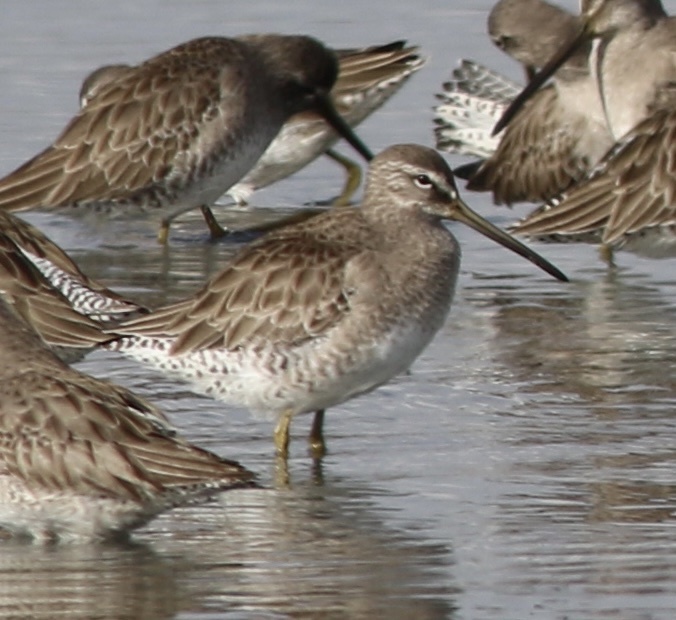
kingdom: Animalia
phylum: Chordata
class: Aves
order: Charadriiformes
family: Scolopacidae
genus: Limnodromus
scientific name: Limnodromus scolopaceus
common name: Long-billed dowitcher
